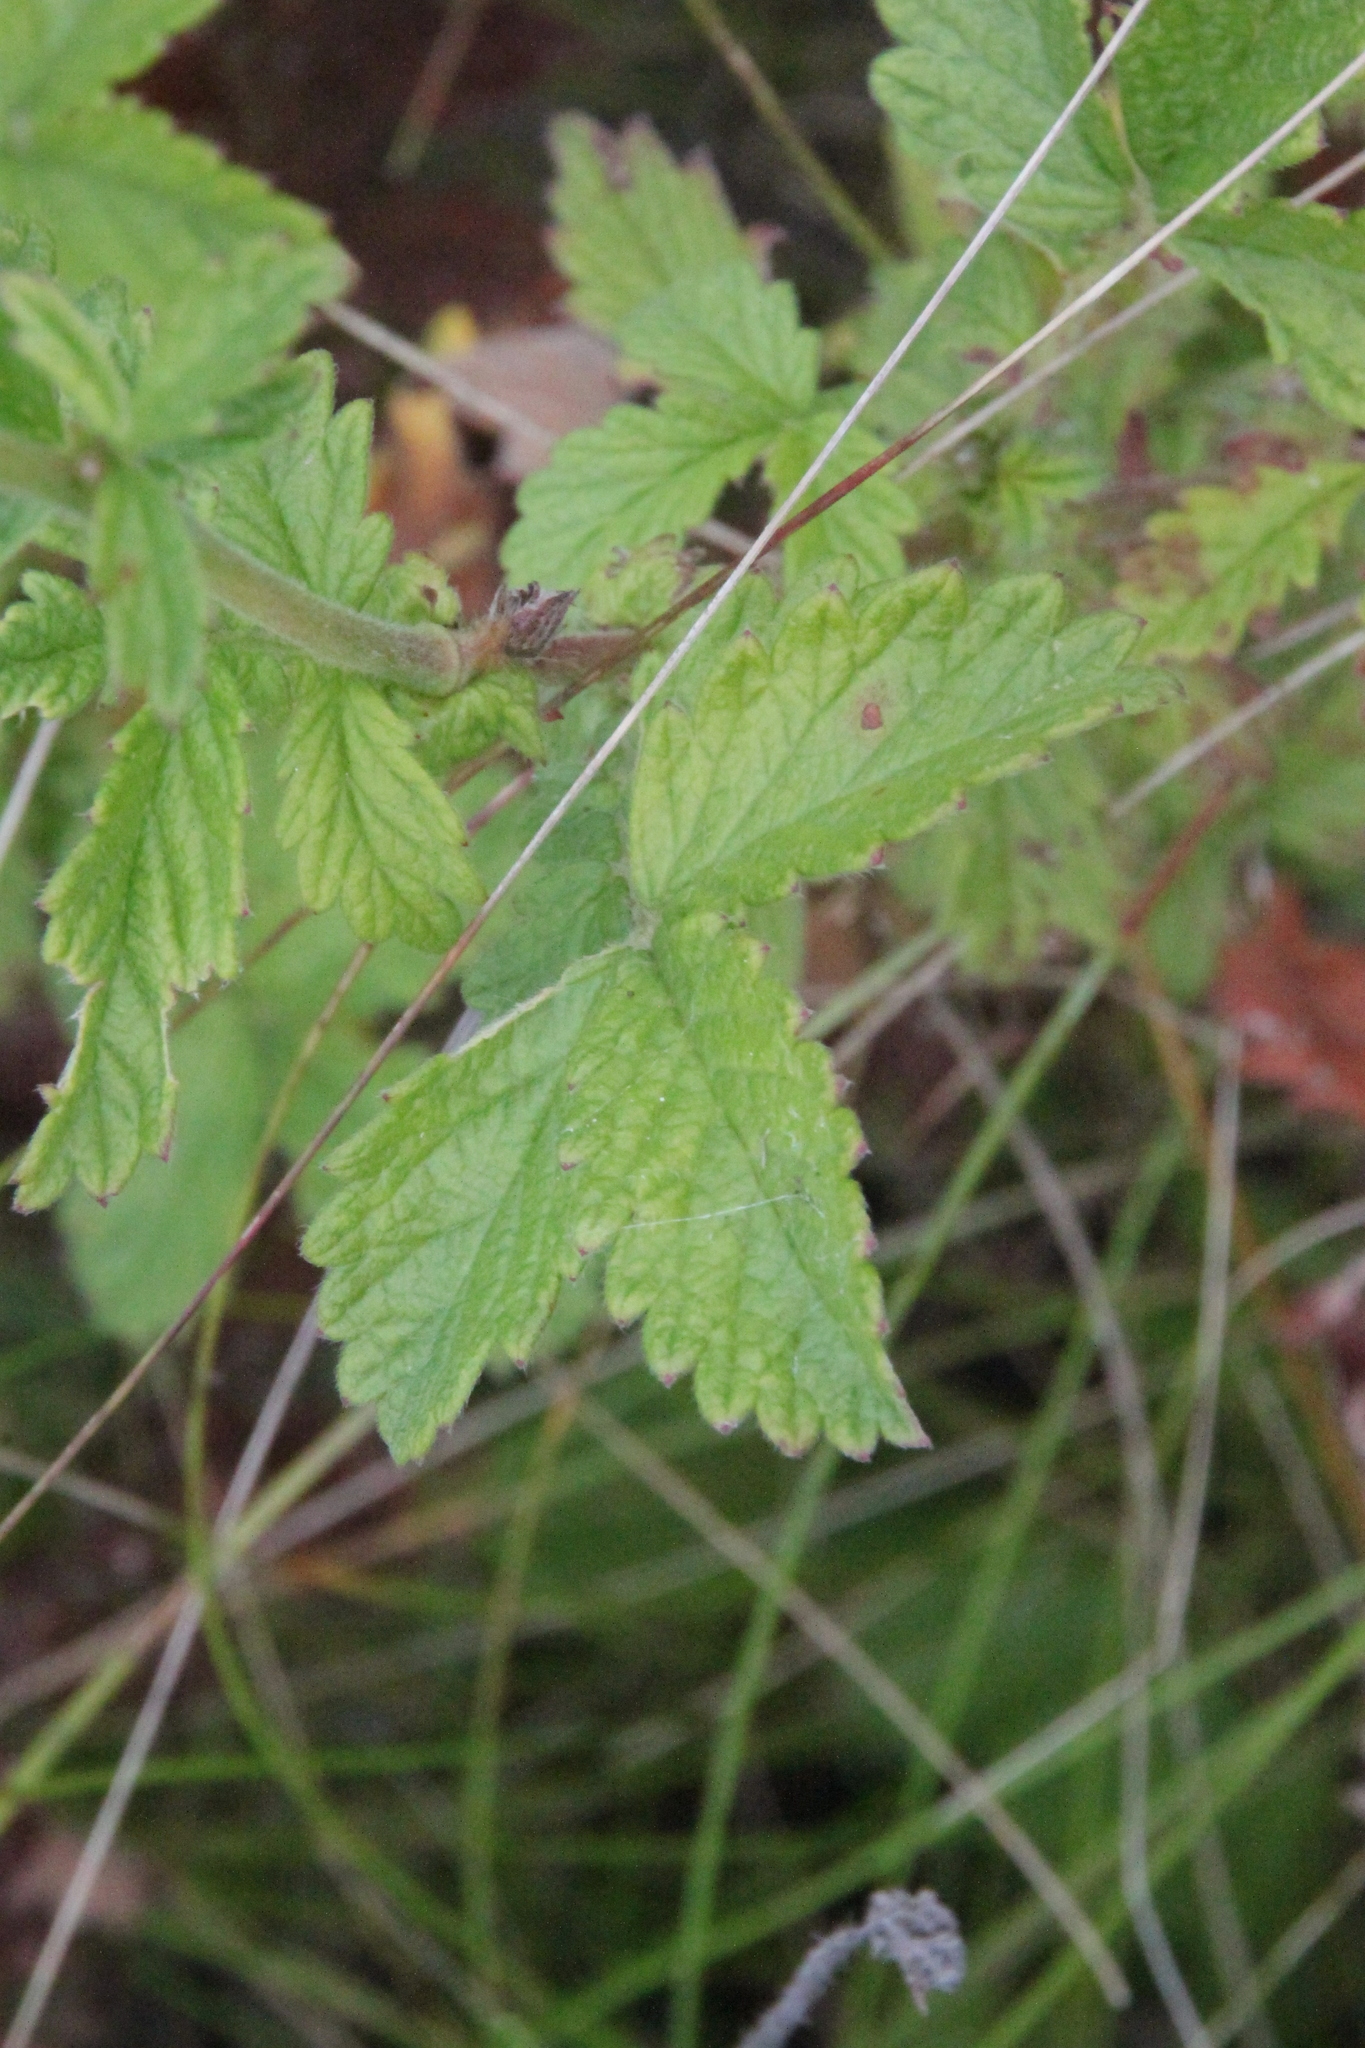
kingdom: Plantae
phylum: Tracheophyta
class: Magnoliopsida
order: Rosales
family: Rosaceae
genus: Agrimonia
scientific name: Agrimonia eupatoria
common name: Agrimony
